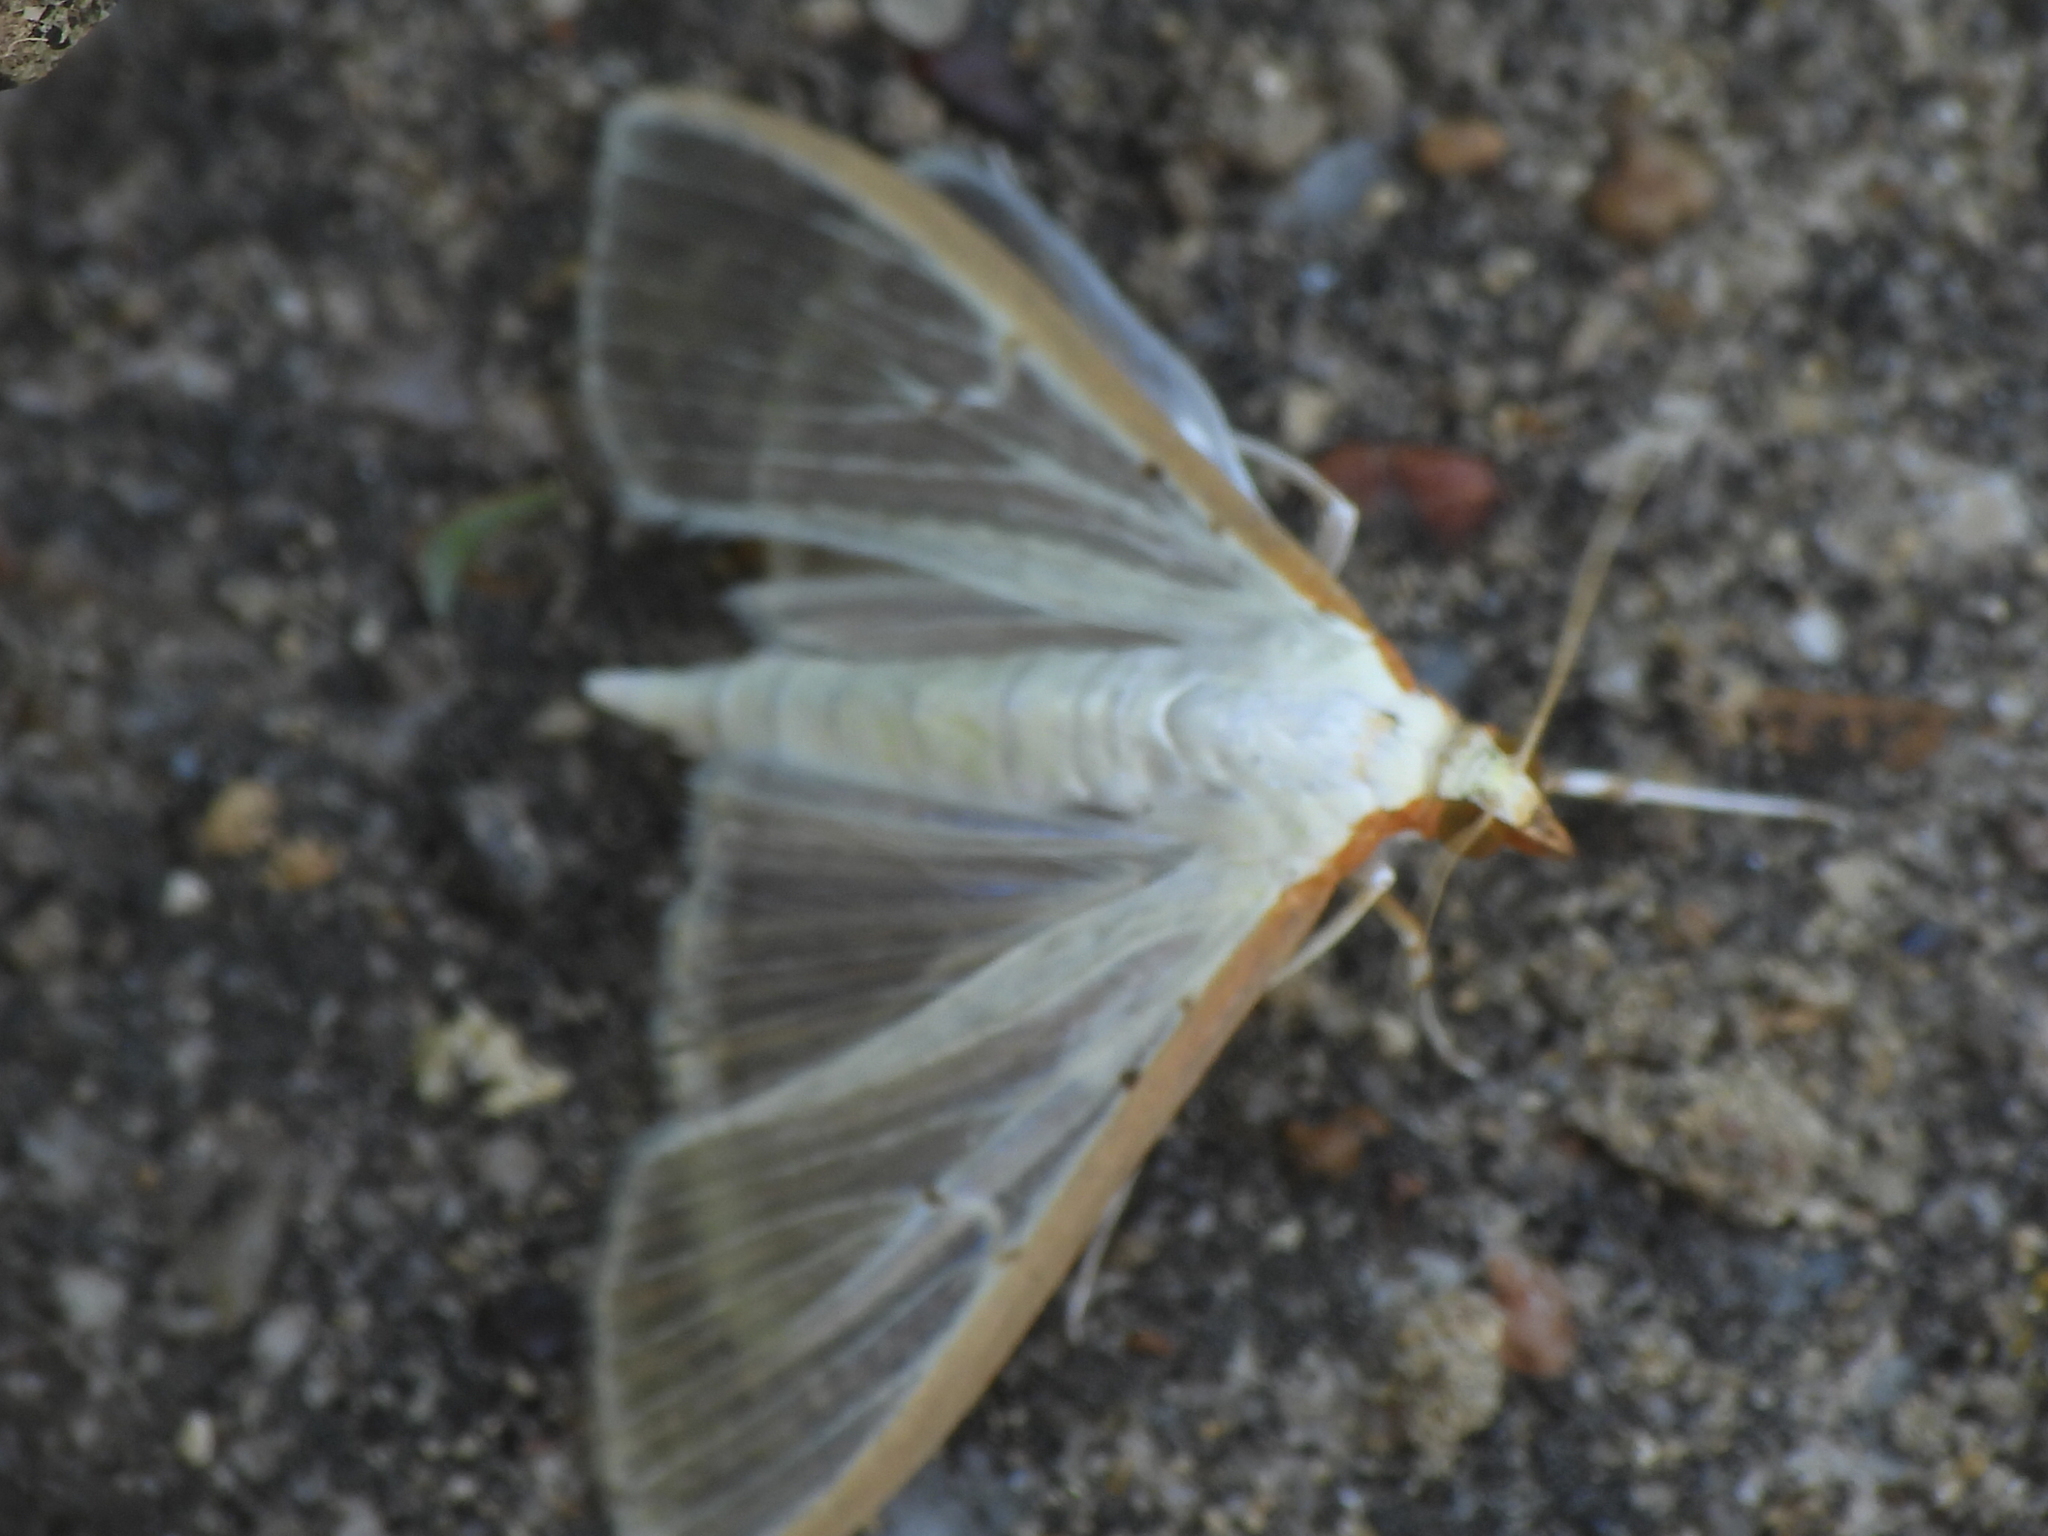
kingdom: Animalia
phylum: Arthropoda
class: Insecta
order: Lepidoptera
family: Crambidae
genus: Palpita
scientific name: Palpita quadristigmalis
